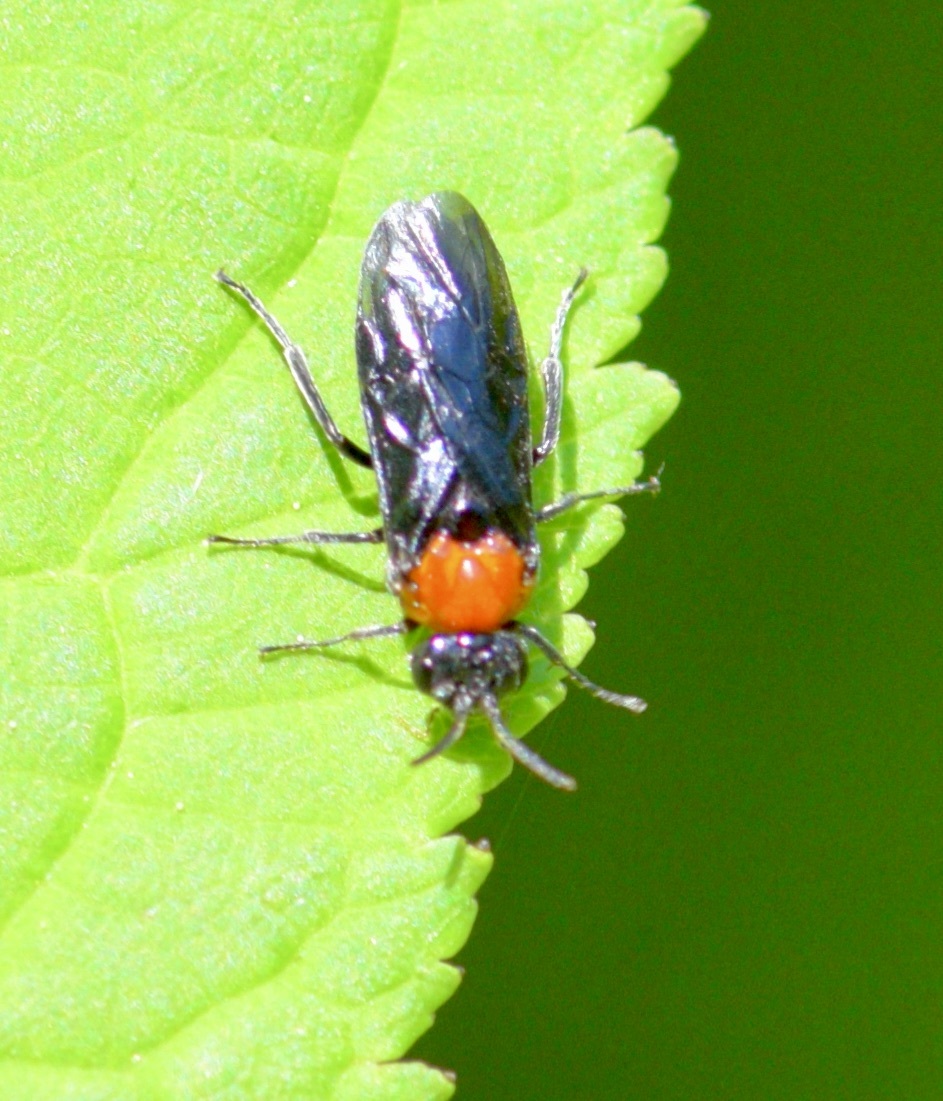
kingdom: Animalia
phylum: Arthropoda
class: Insecta
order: Hymenoptera
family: Tenthredinidae
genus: Tethida
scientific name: Tethida barda
